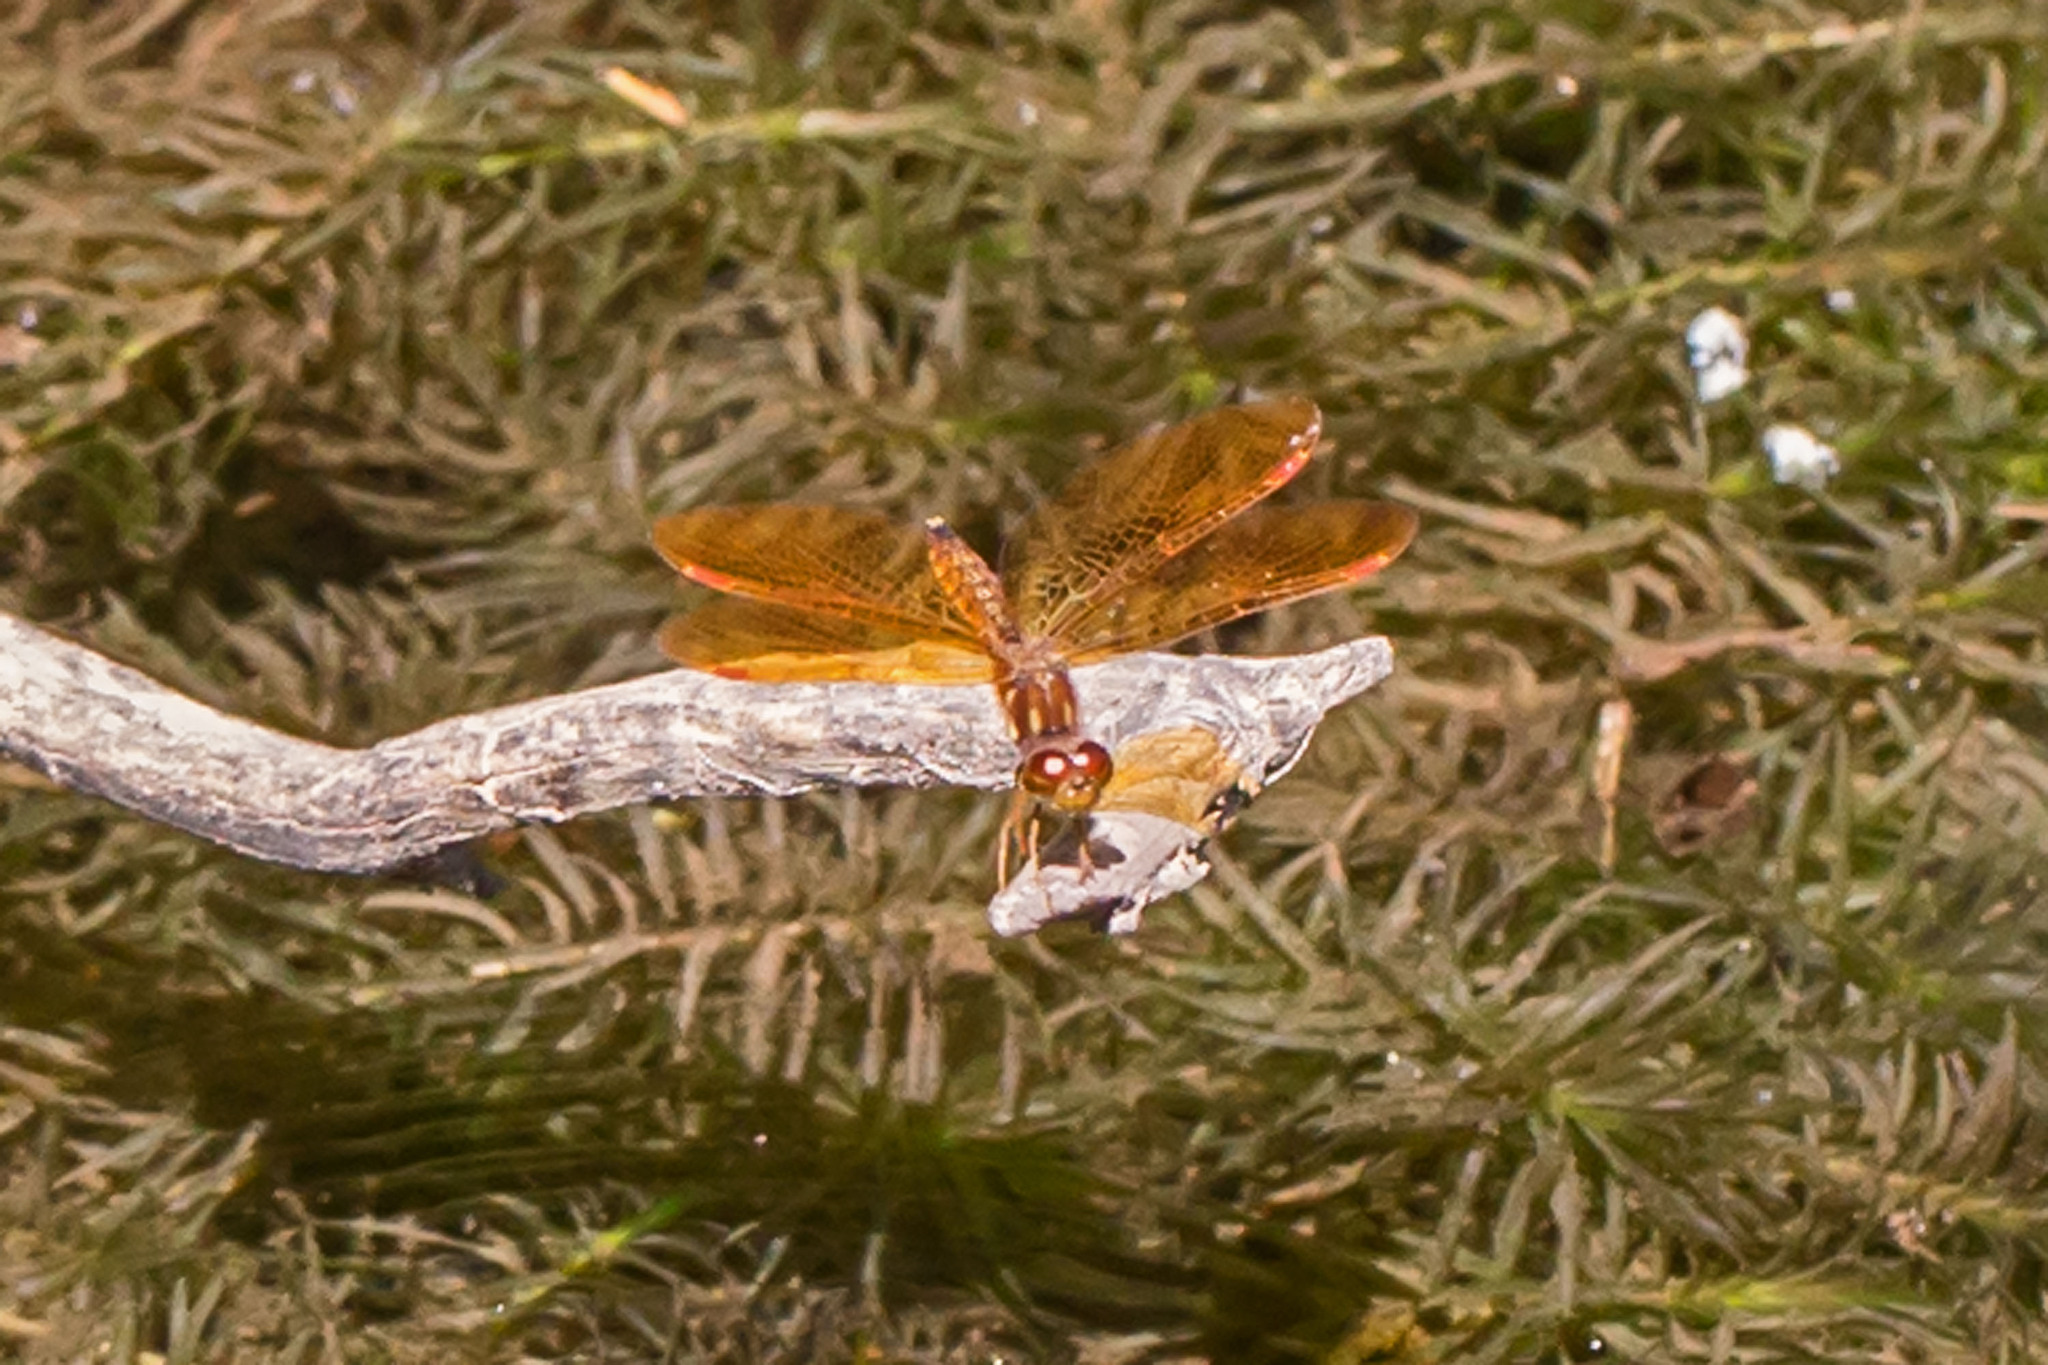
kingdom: Animalia
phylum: Arthropoda
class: Insecta
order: Odonata
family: Libellulidae
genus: Perithemis
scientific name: Perithemis tenera
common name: Eastern amberwing
